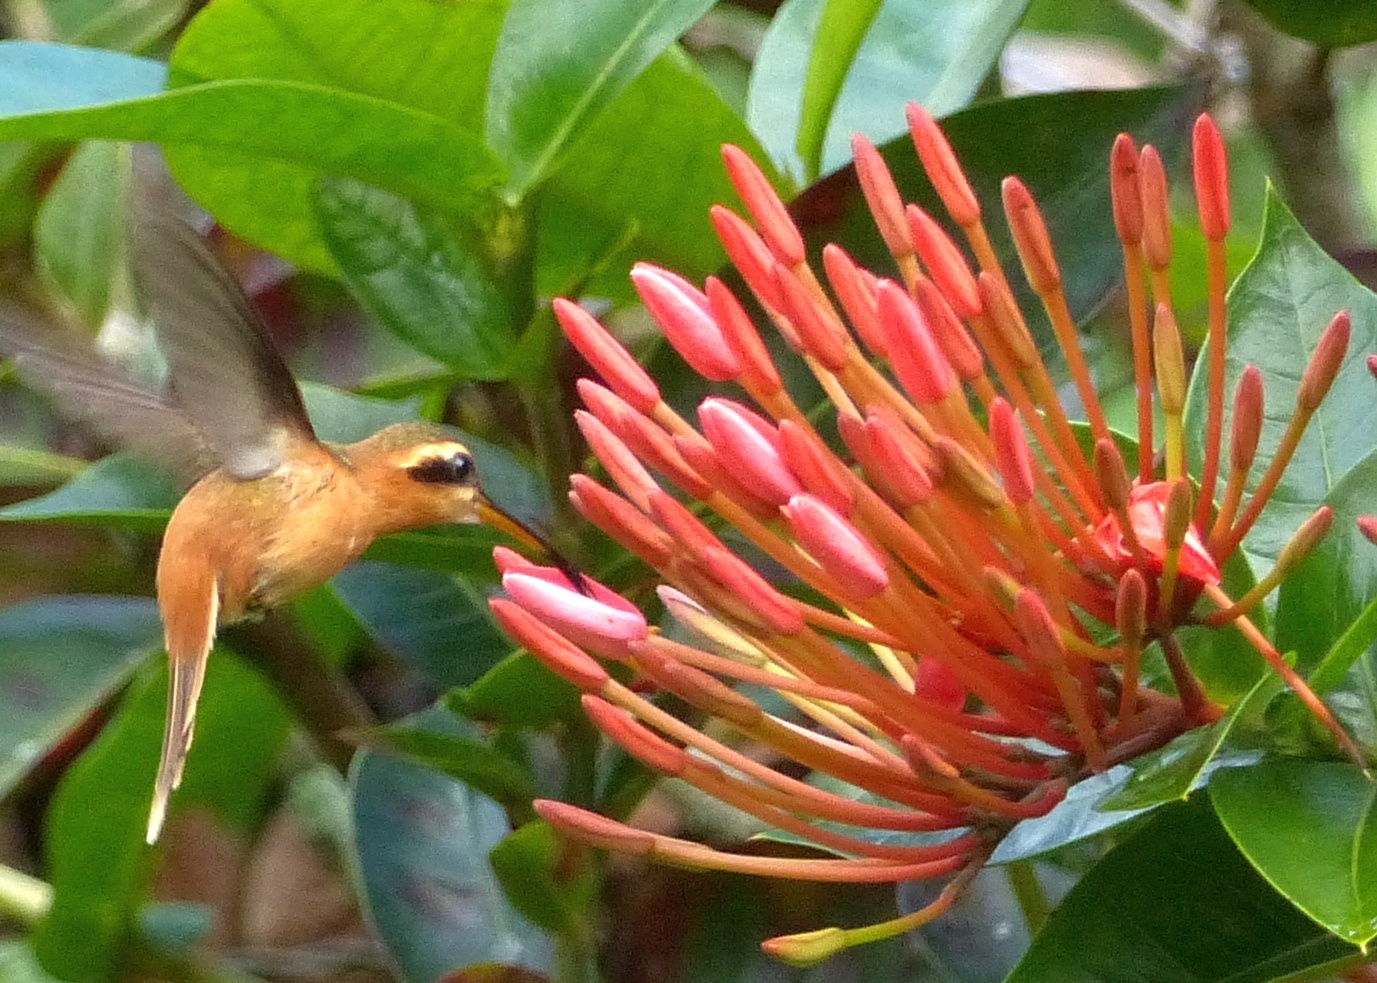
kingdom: Animalia
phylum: Chordata
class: Aves
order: Apodiformes
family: Trochilidae
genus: Phaethornis
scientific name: Phaethornis ruber
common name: Reddish hermit
